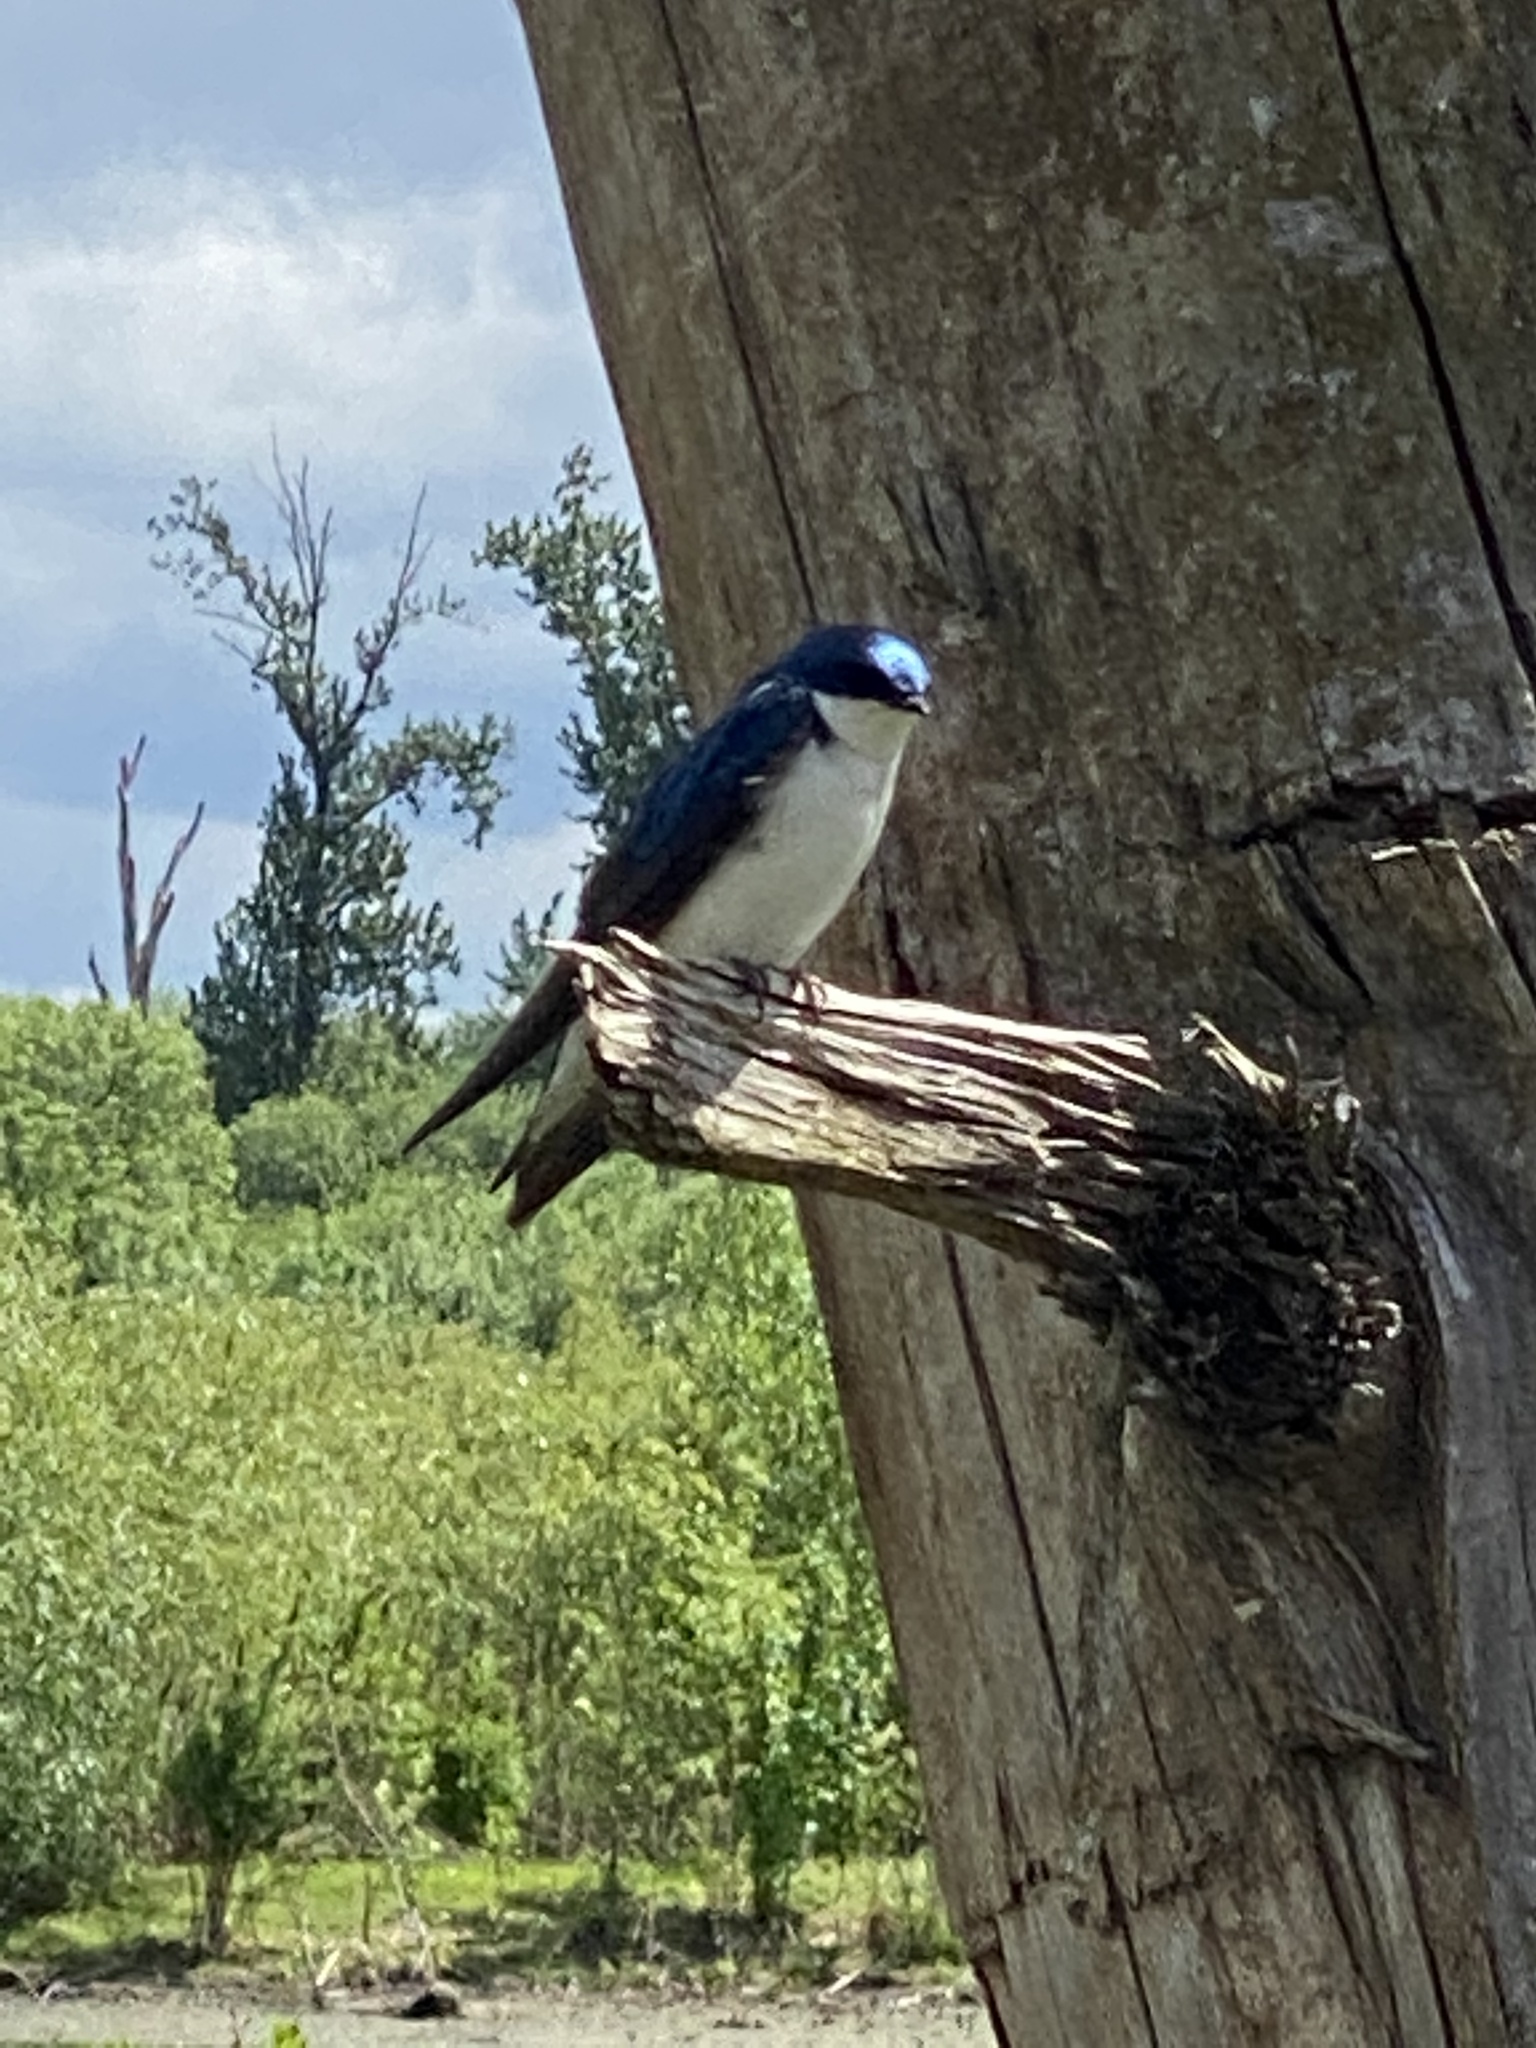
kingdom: Animalia
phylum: Chordata
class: Aves
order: Passeriformes
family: Hirundinidae
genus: Tachycineta
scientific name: Tachycineta bicolor
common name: Tree swallow
